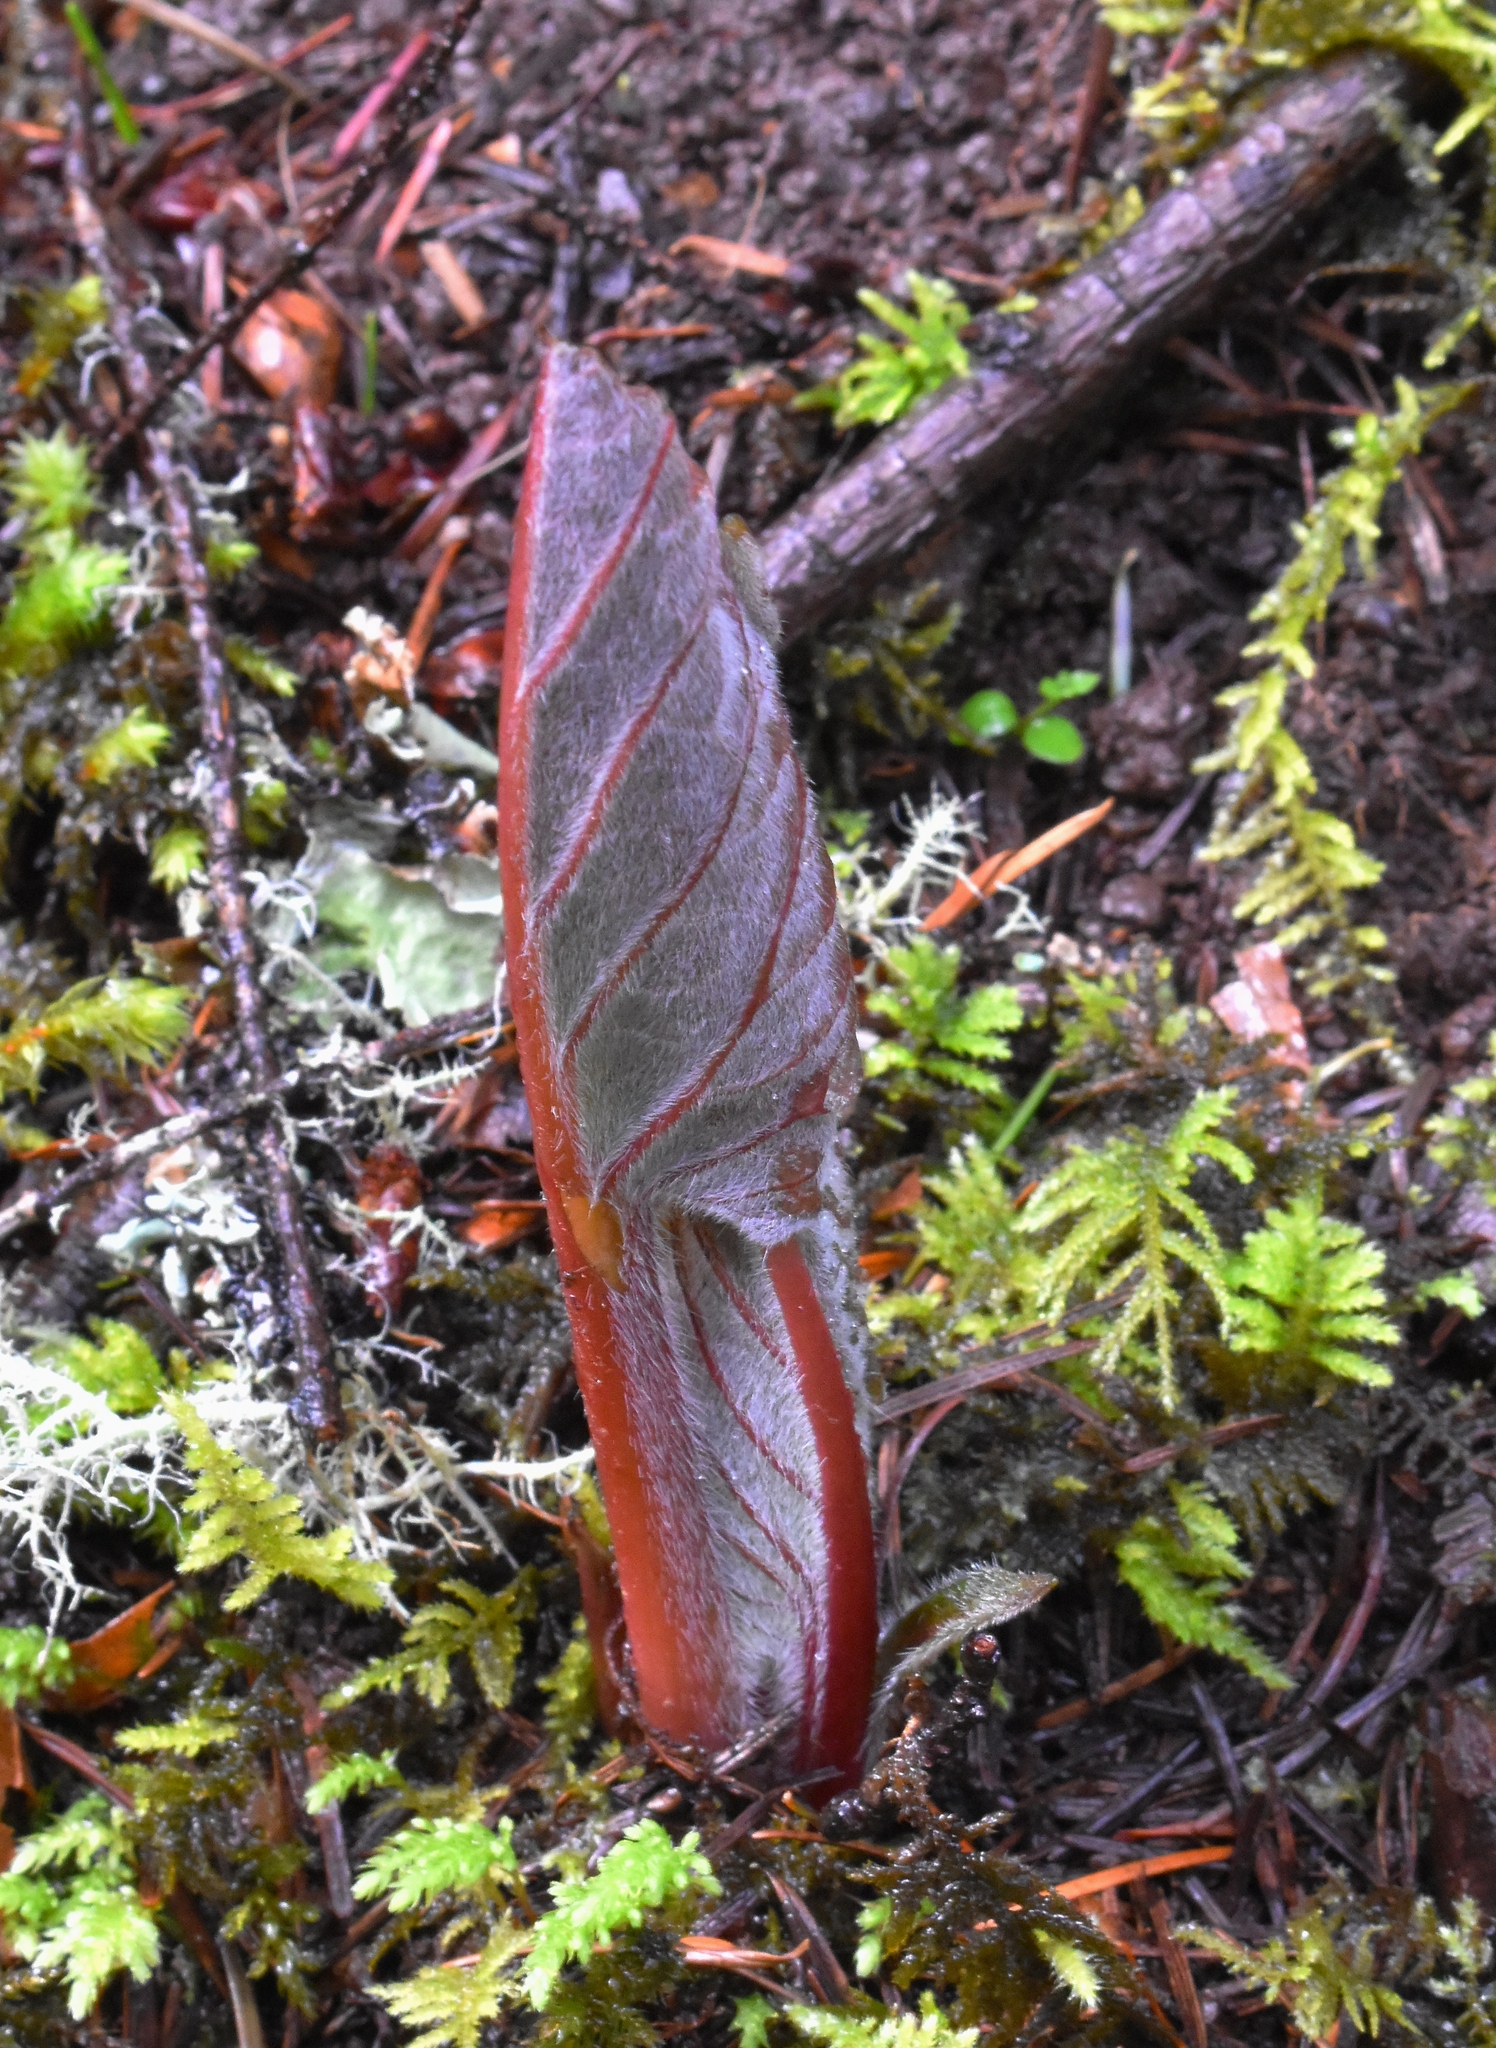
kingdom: Plantae
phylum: Tracheophyta
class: Magnoliopsida
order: Boraginales
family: Boraginaceae
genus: Adelinia
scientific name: Adelinia grande
